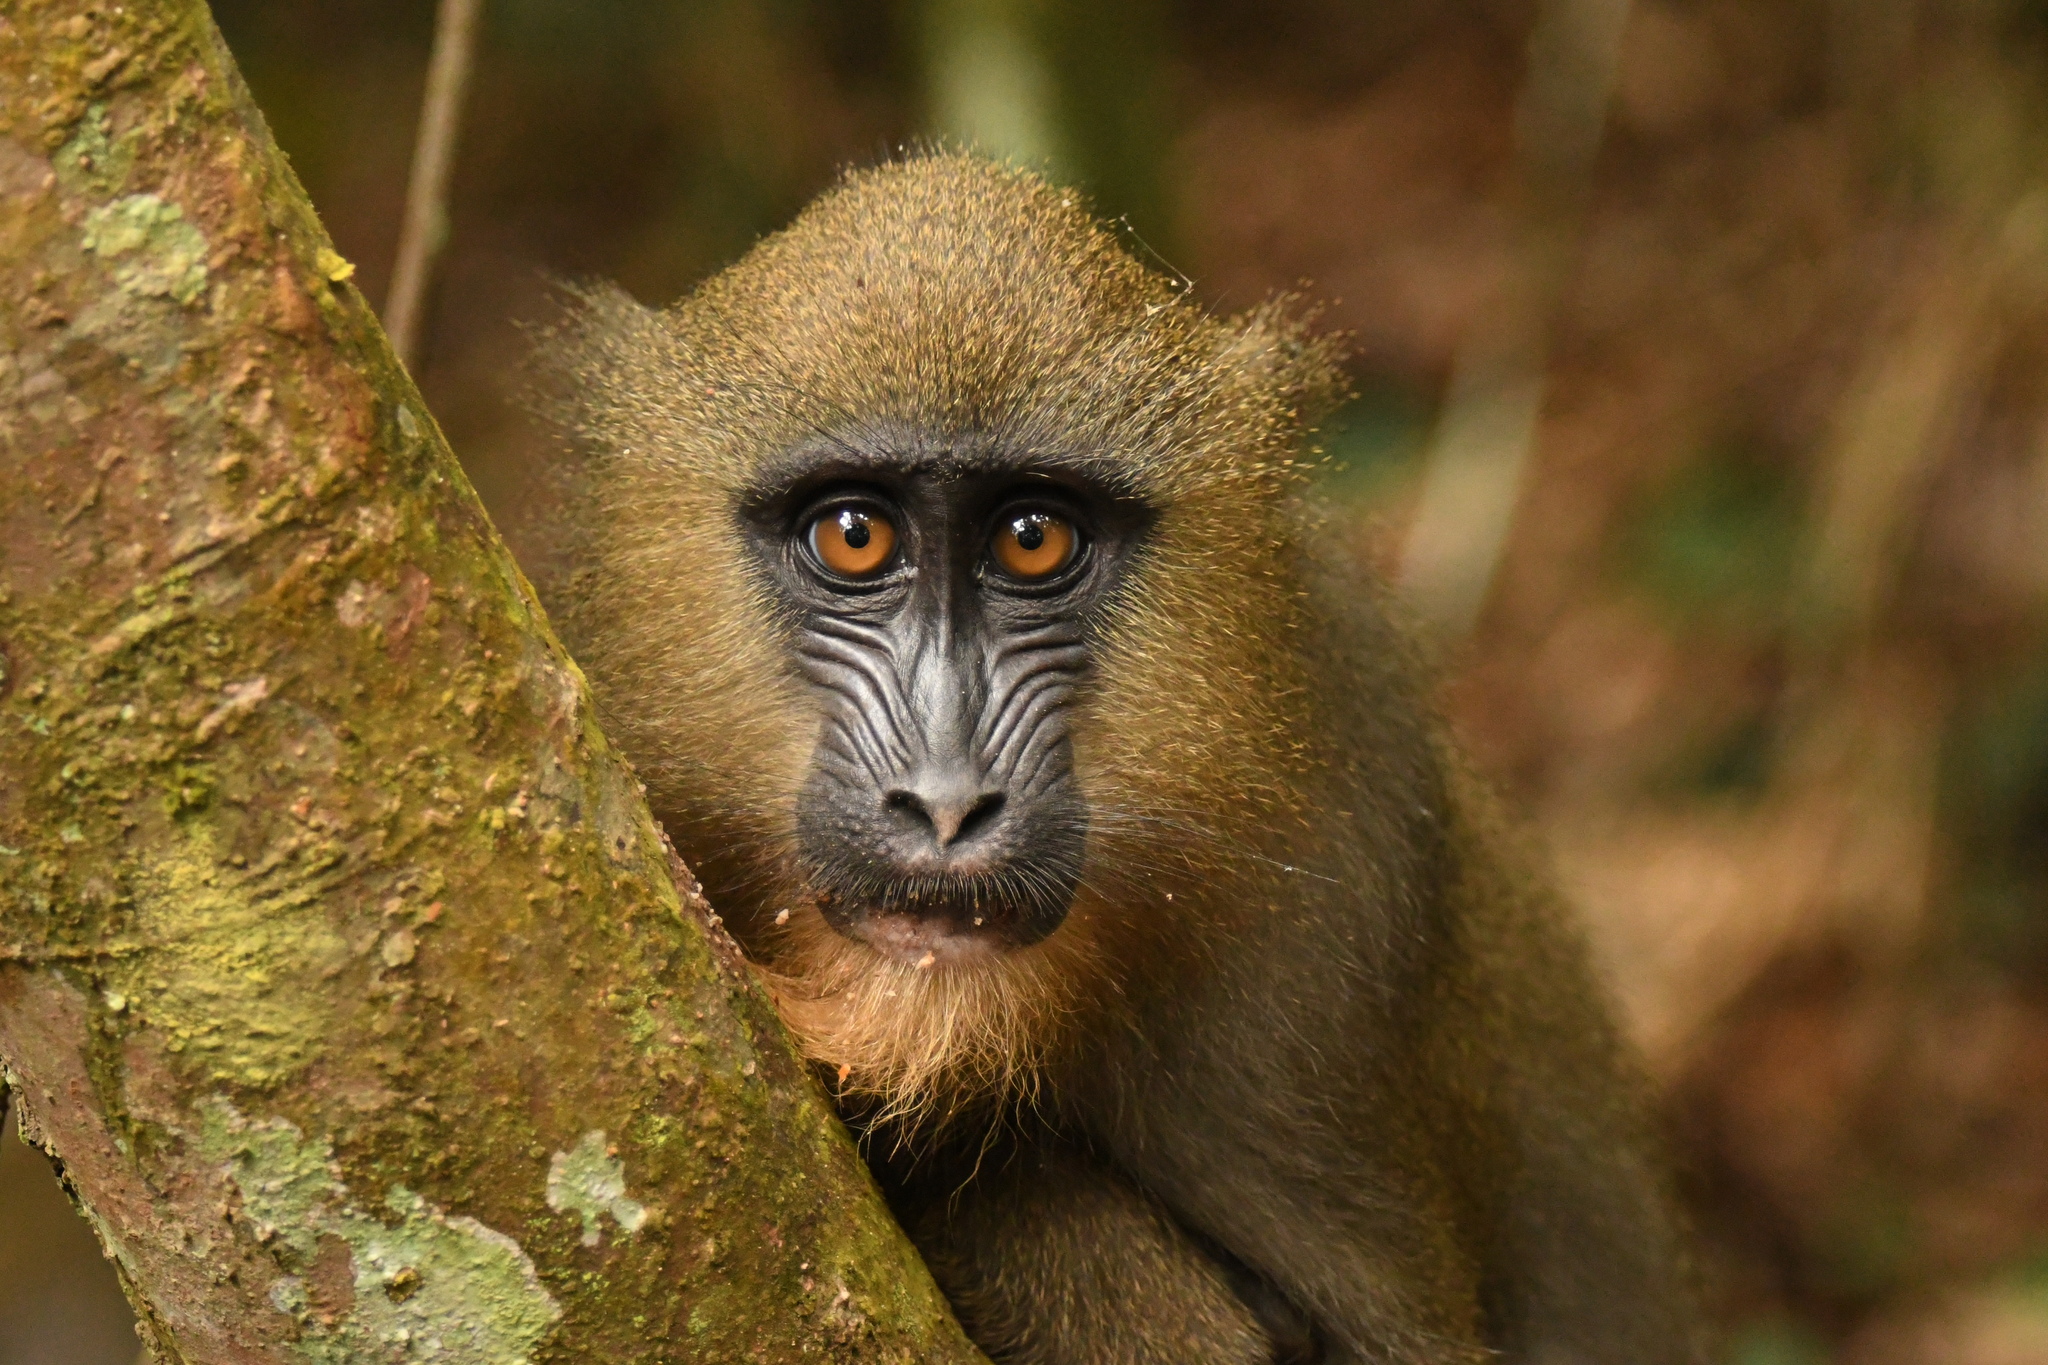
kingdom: Animalia
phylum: Chordata
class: Mammalia
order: Primates
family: Cercopithecidae
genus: Mandrillus
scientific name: Mandrillus sphinx
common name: Mandrill
